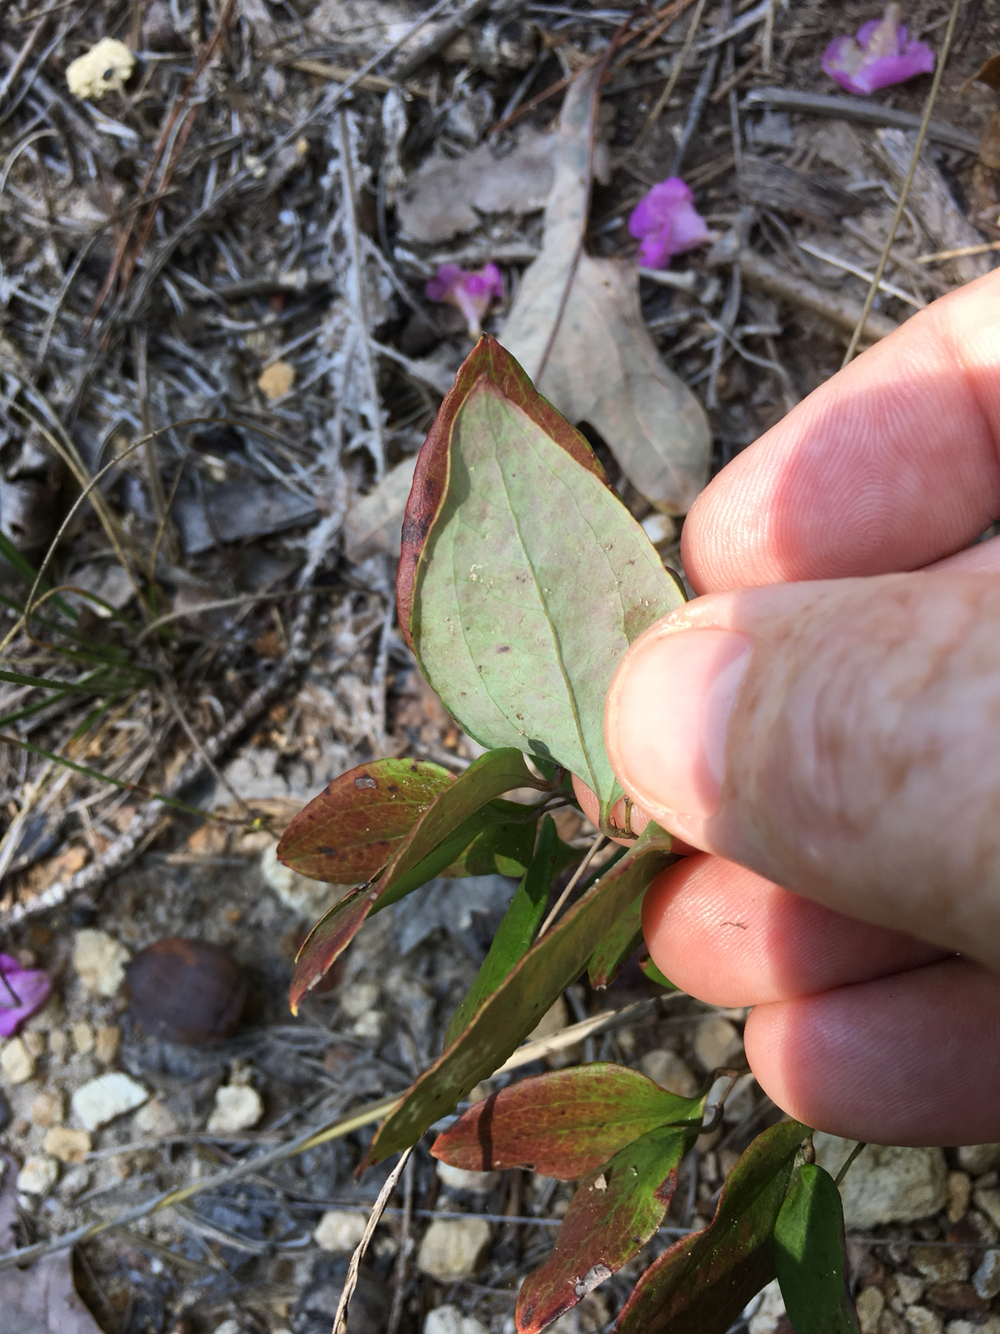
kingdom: Plantae
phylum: Tracheophyta
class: Liliopsida
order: Liliales
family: Smilacaceae
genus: Smilax
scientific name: Smilax glauca
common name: Cat greenbrier
